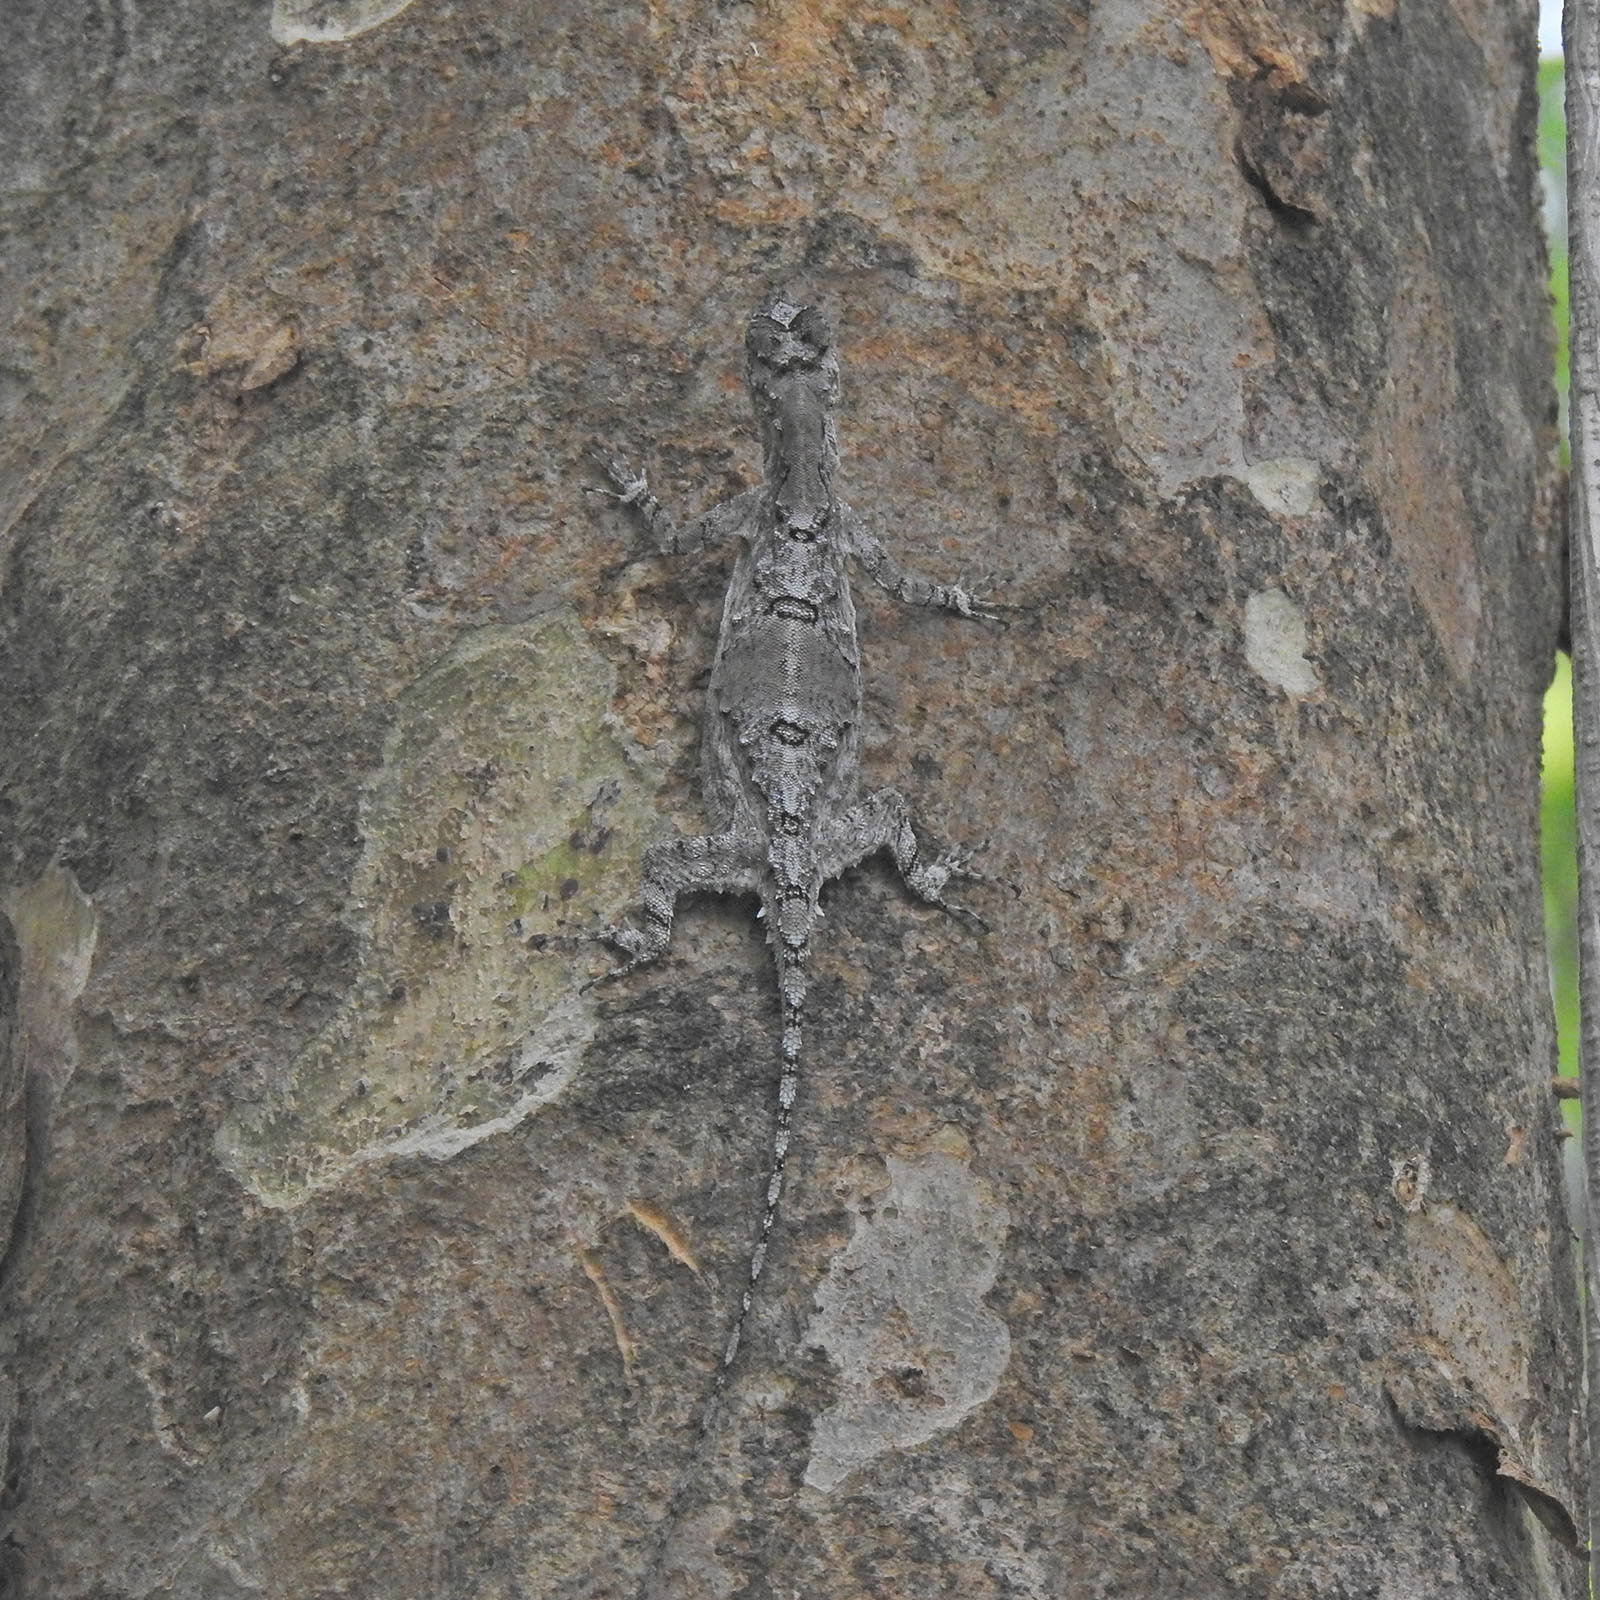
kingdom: Animalia
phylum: Chordata
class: Squamata
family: Agamidae
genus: Draco
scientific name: Draco dussumieri
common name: Southern flying lizard
